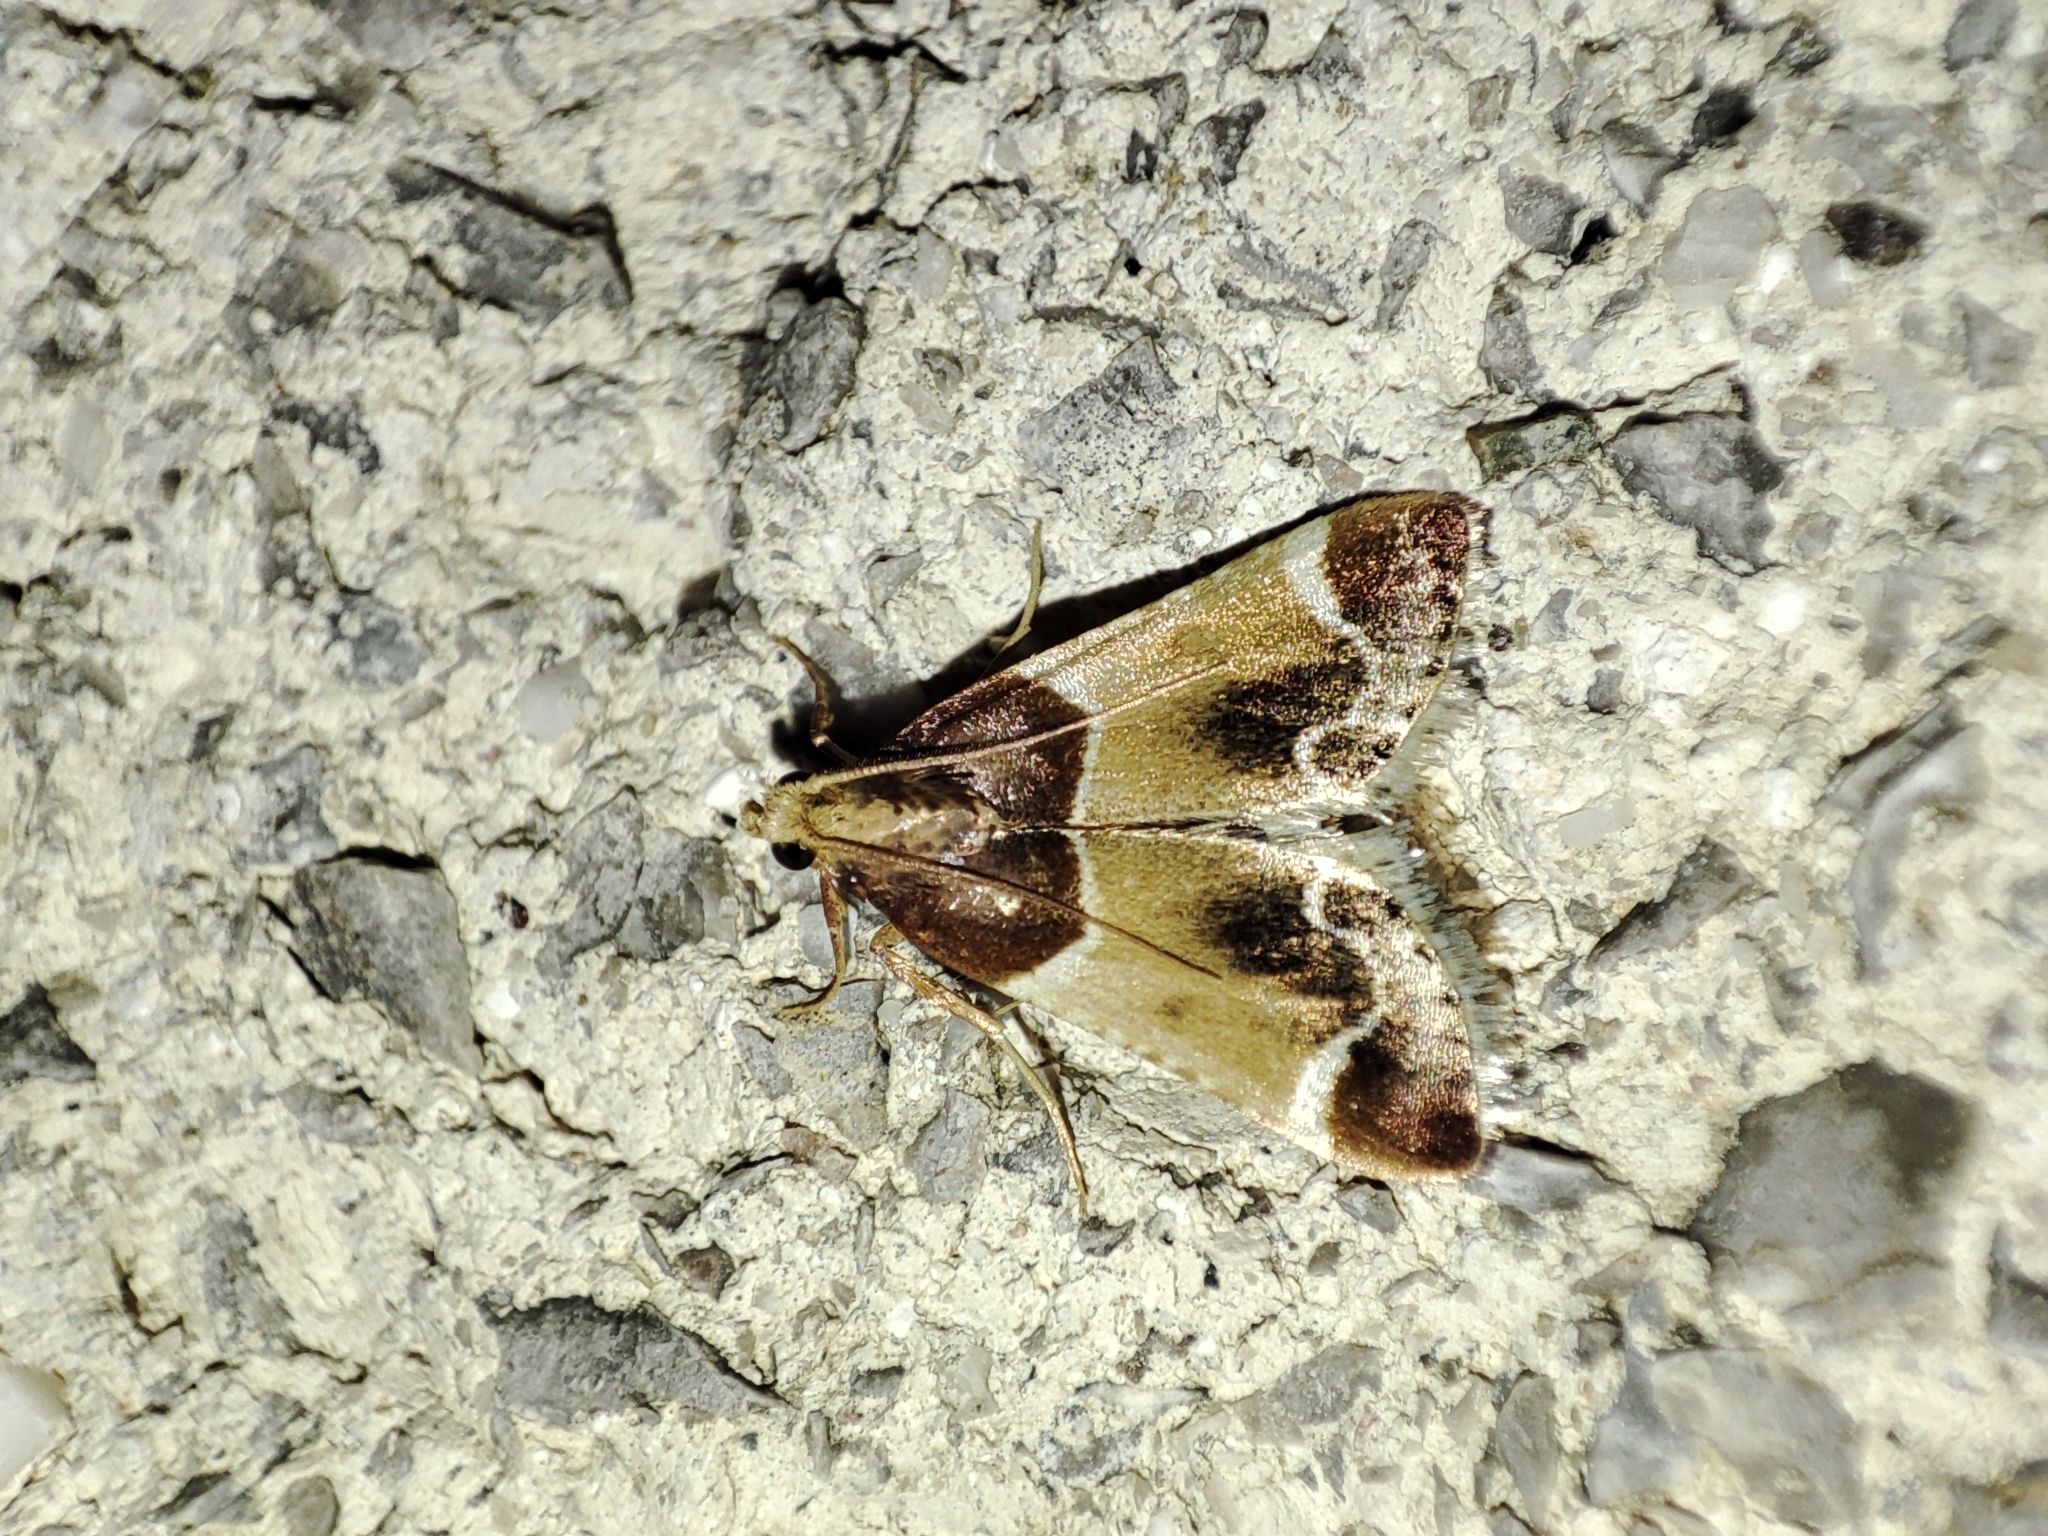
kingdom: Animalia
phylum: Arthropoda
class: Insecta
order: Lepidoptera
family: Pyralidae
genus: Pyralis
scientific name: Pyralis farinalis
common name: Meal moth
